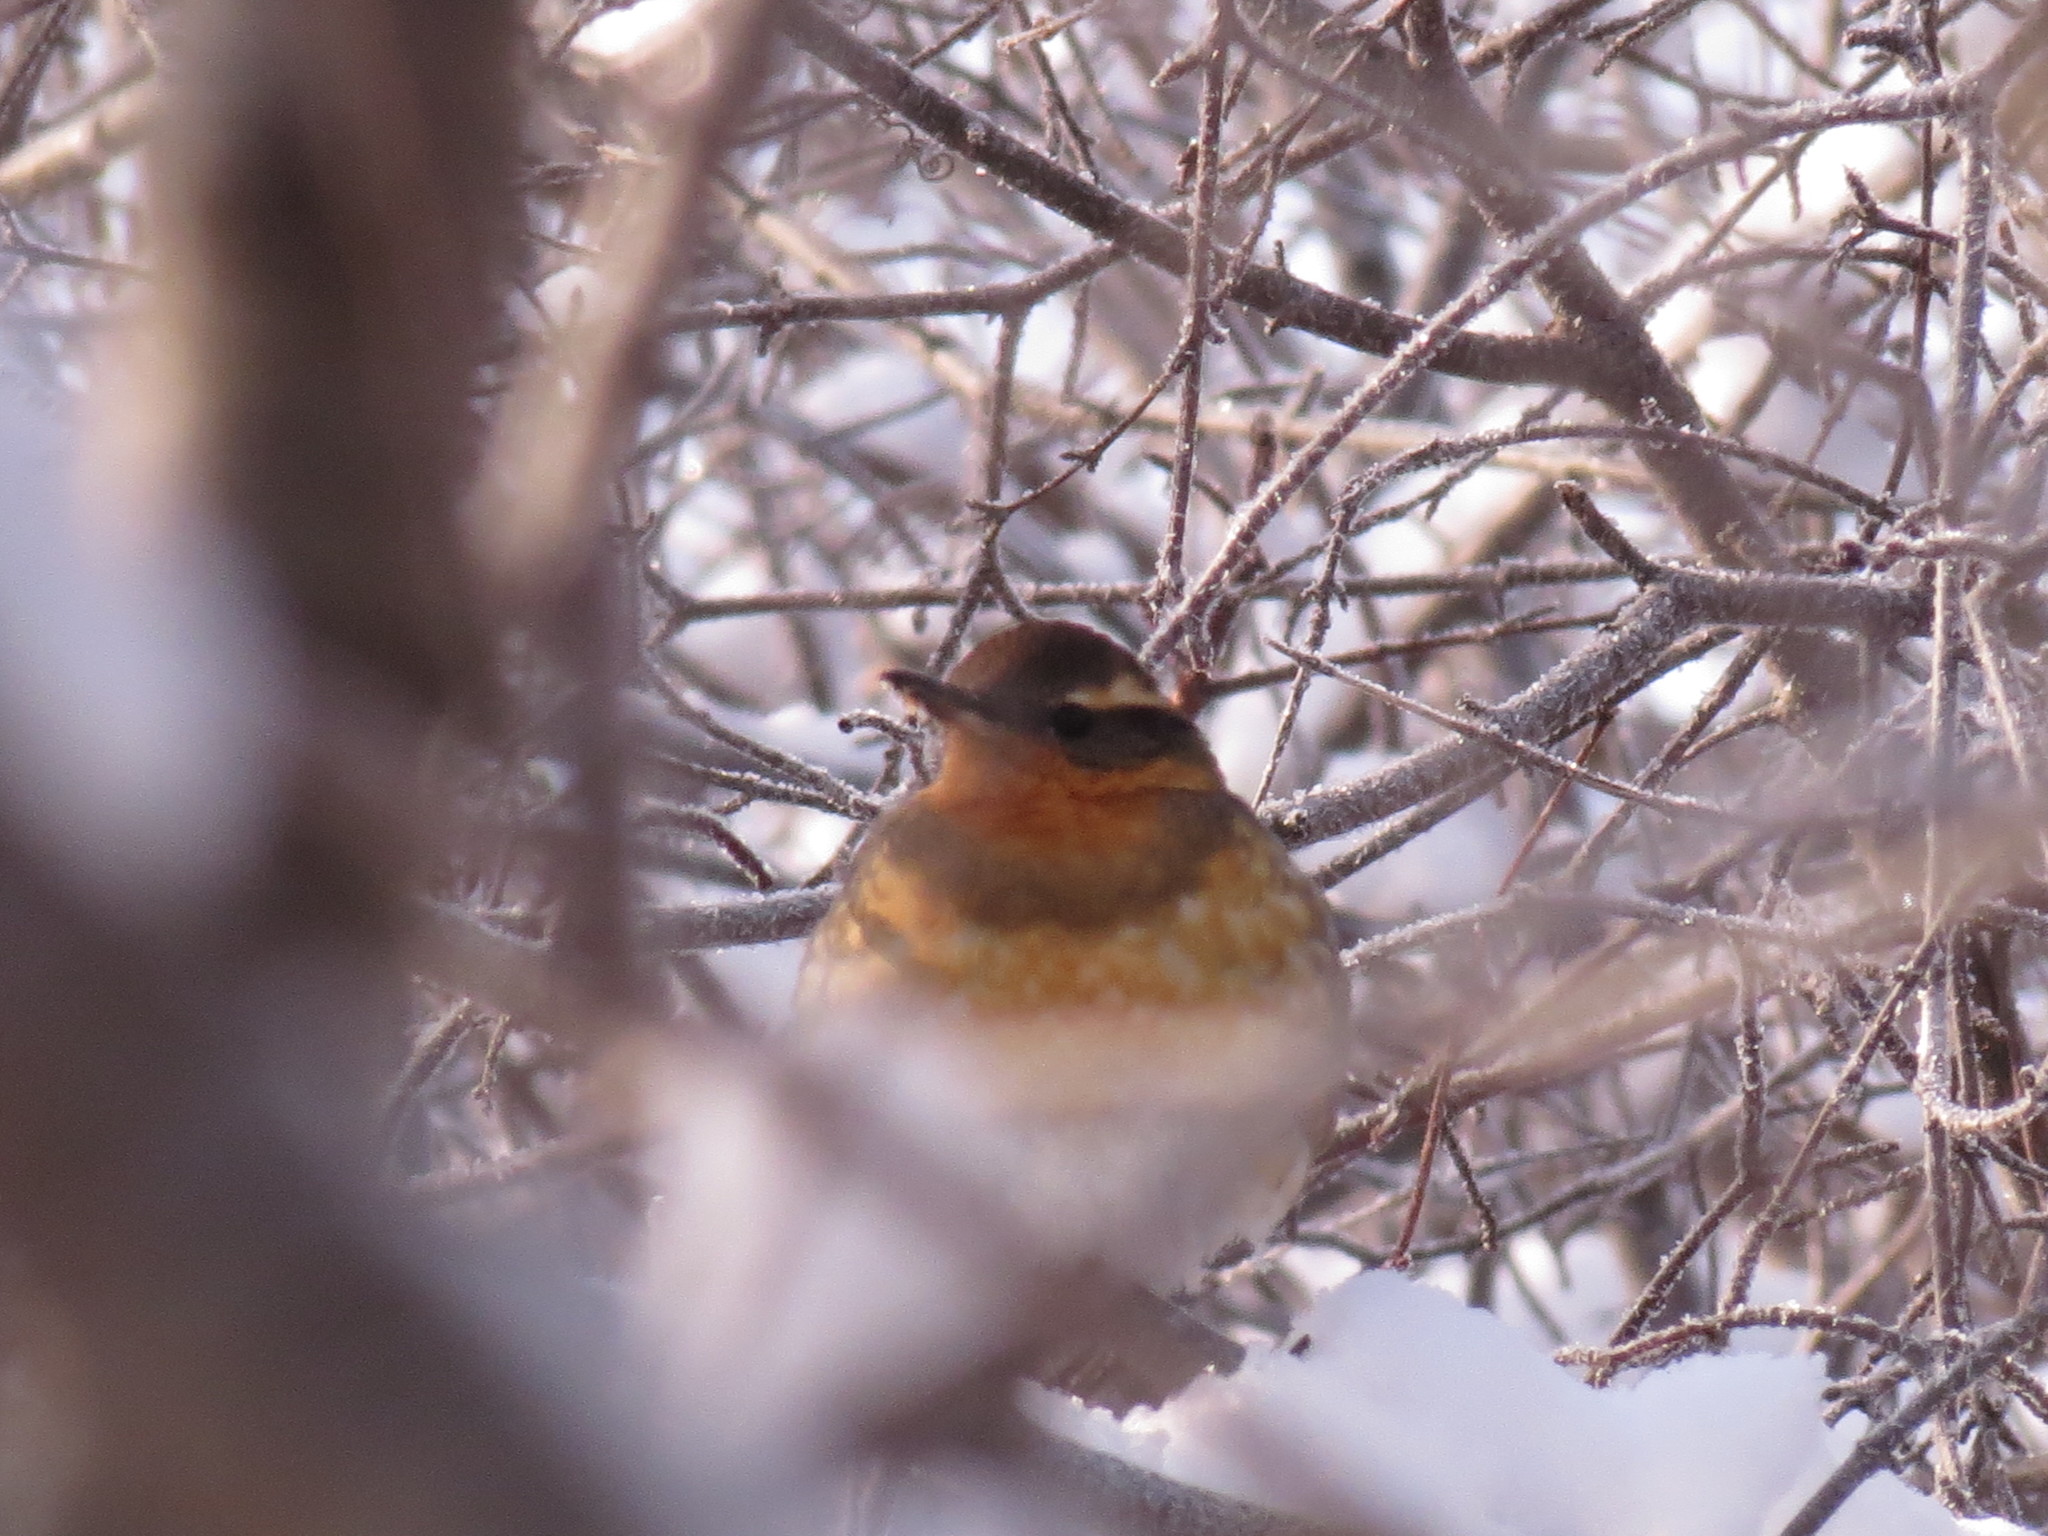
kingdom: Animalia
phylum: Chordata
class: Aves
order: Passeriformes
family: Turdidae
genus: Ixoreus
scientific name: Ixoreus naevius
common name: Varied thrush
